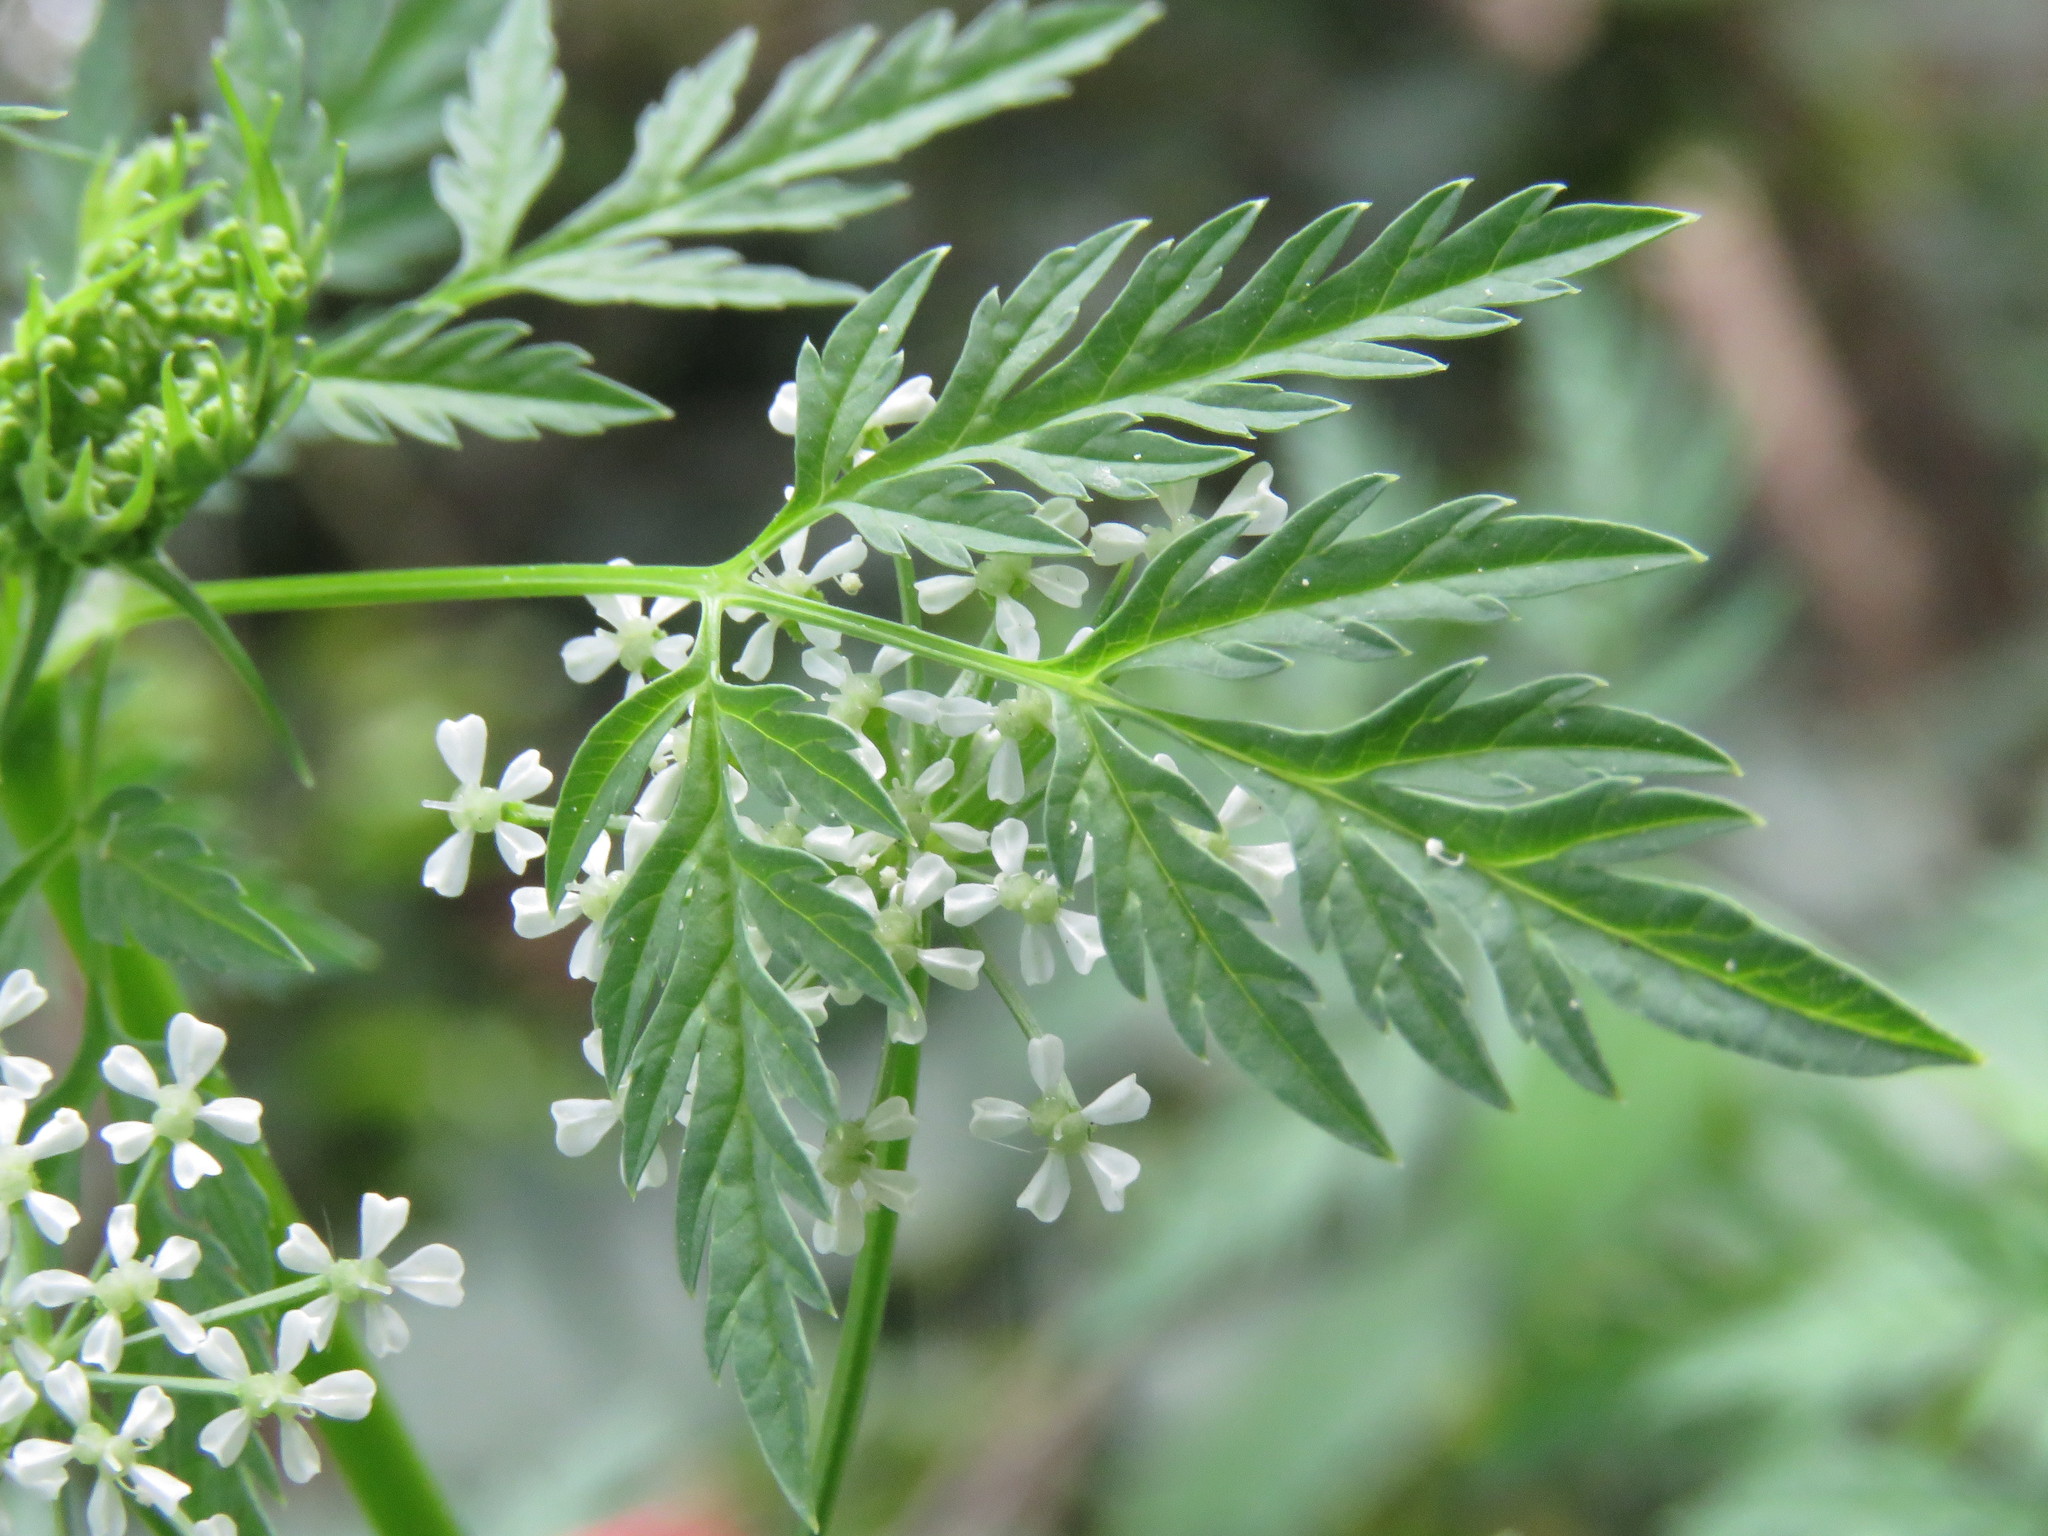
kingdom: Plantae
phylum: Tracheophyta
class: Magnoliopsida
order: Apiales
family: Apiaceae
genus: Conium
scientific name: Conium maculatum
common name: Hemlock
